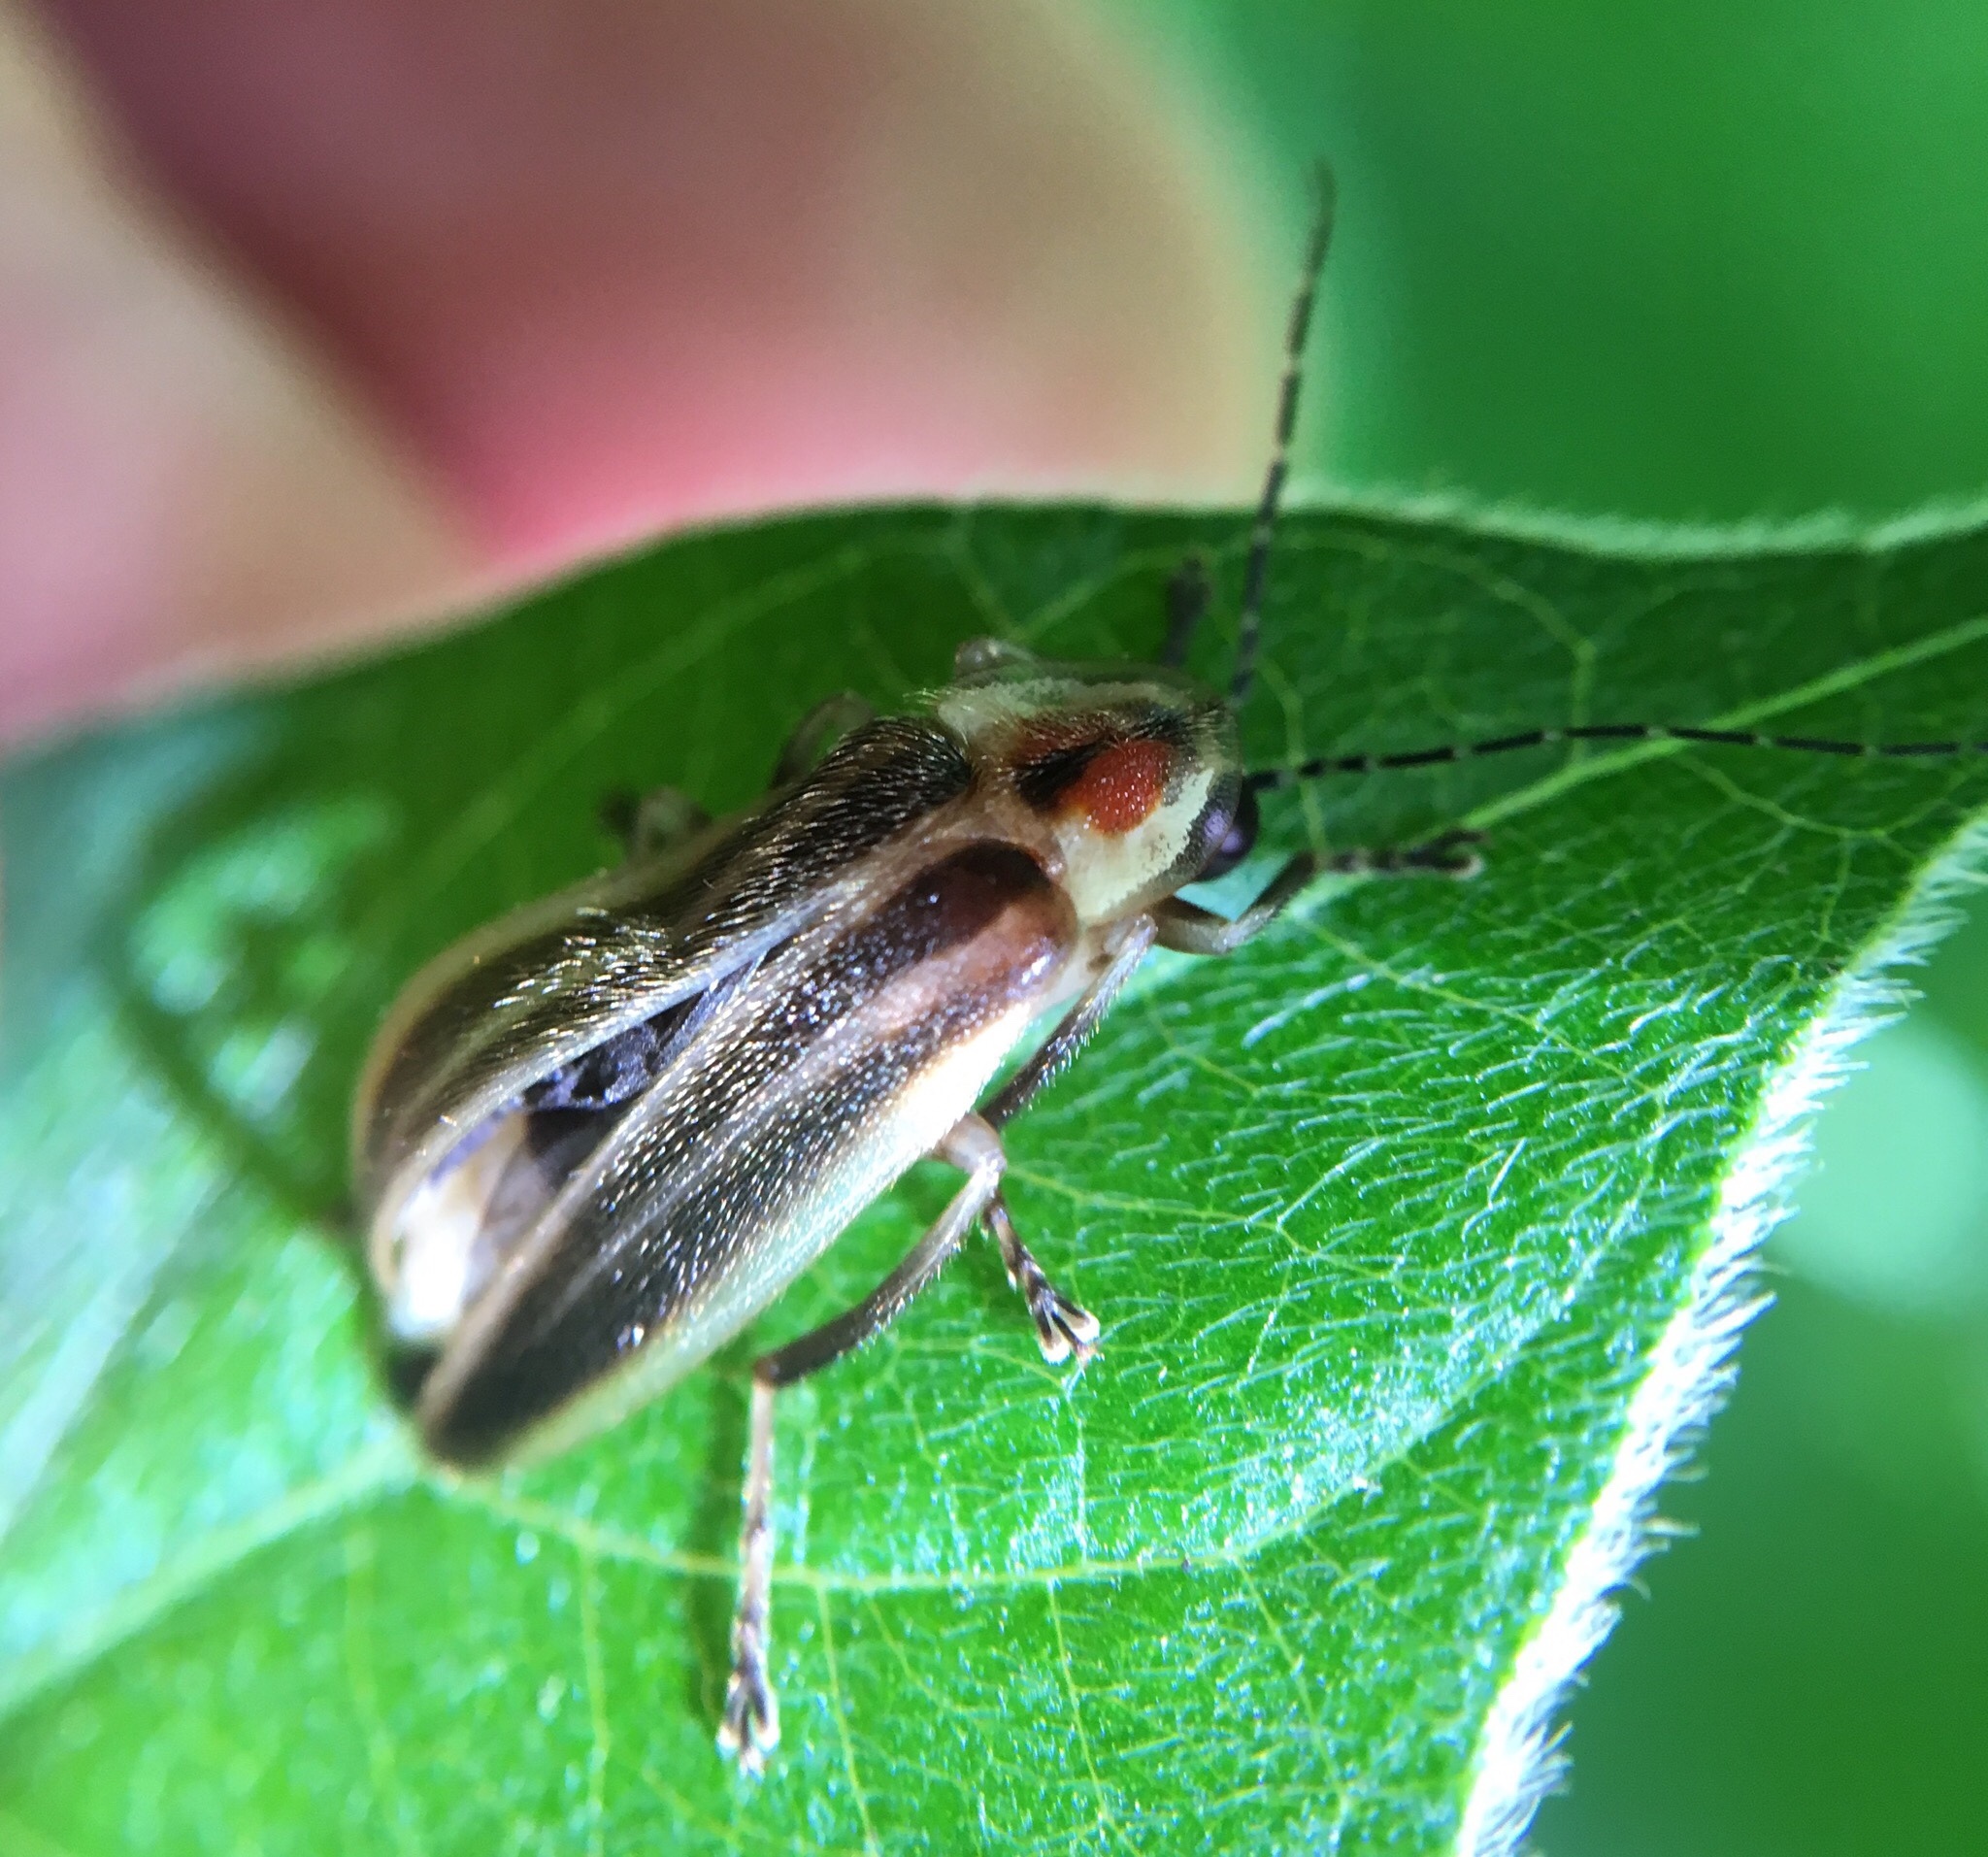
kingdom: Animalia
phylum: Arthropoda
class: Insecta
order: Coleoptera
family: Lampyridae
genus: Photuris
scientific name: Photuris
